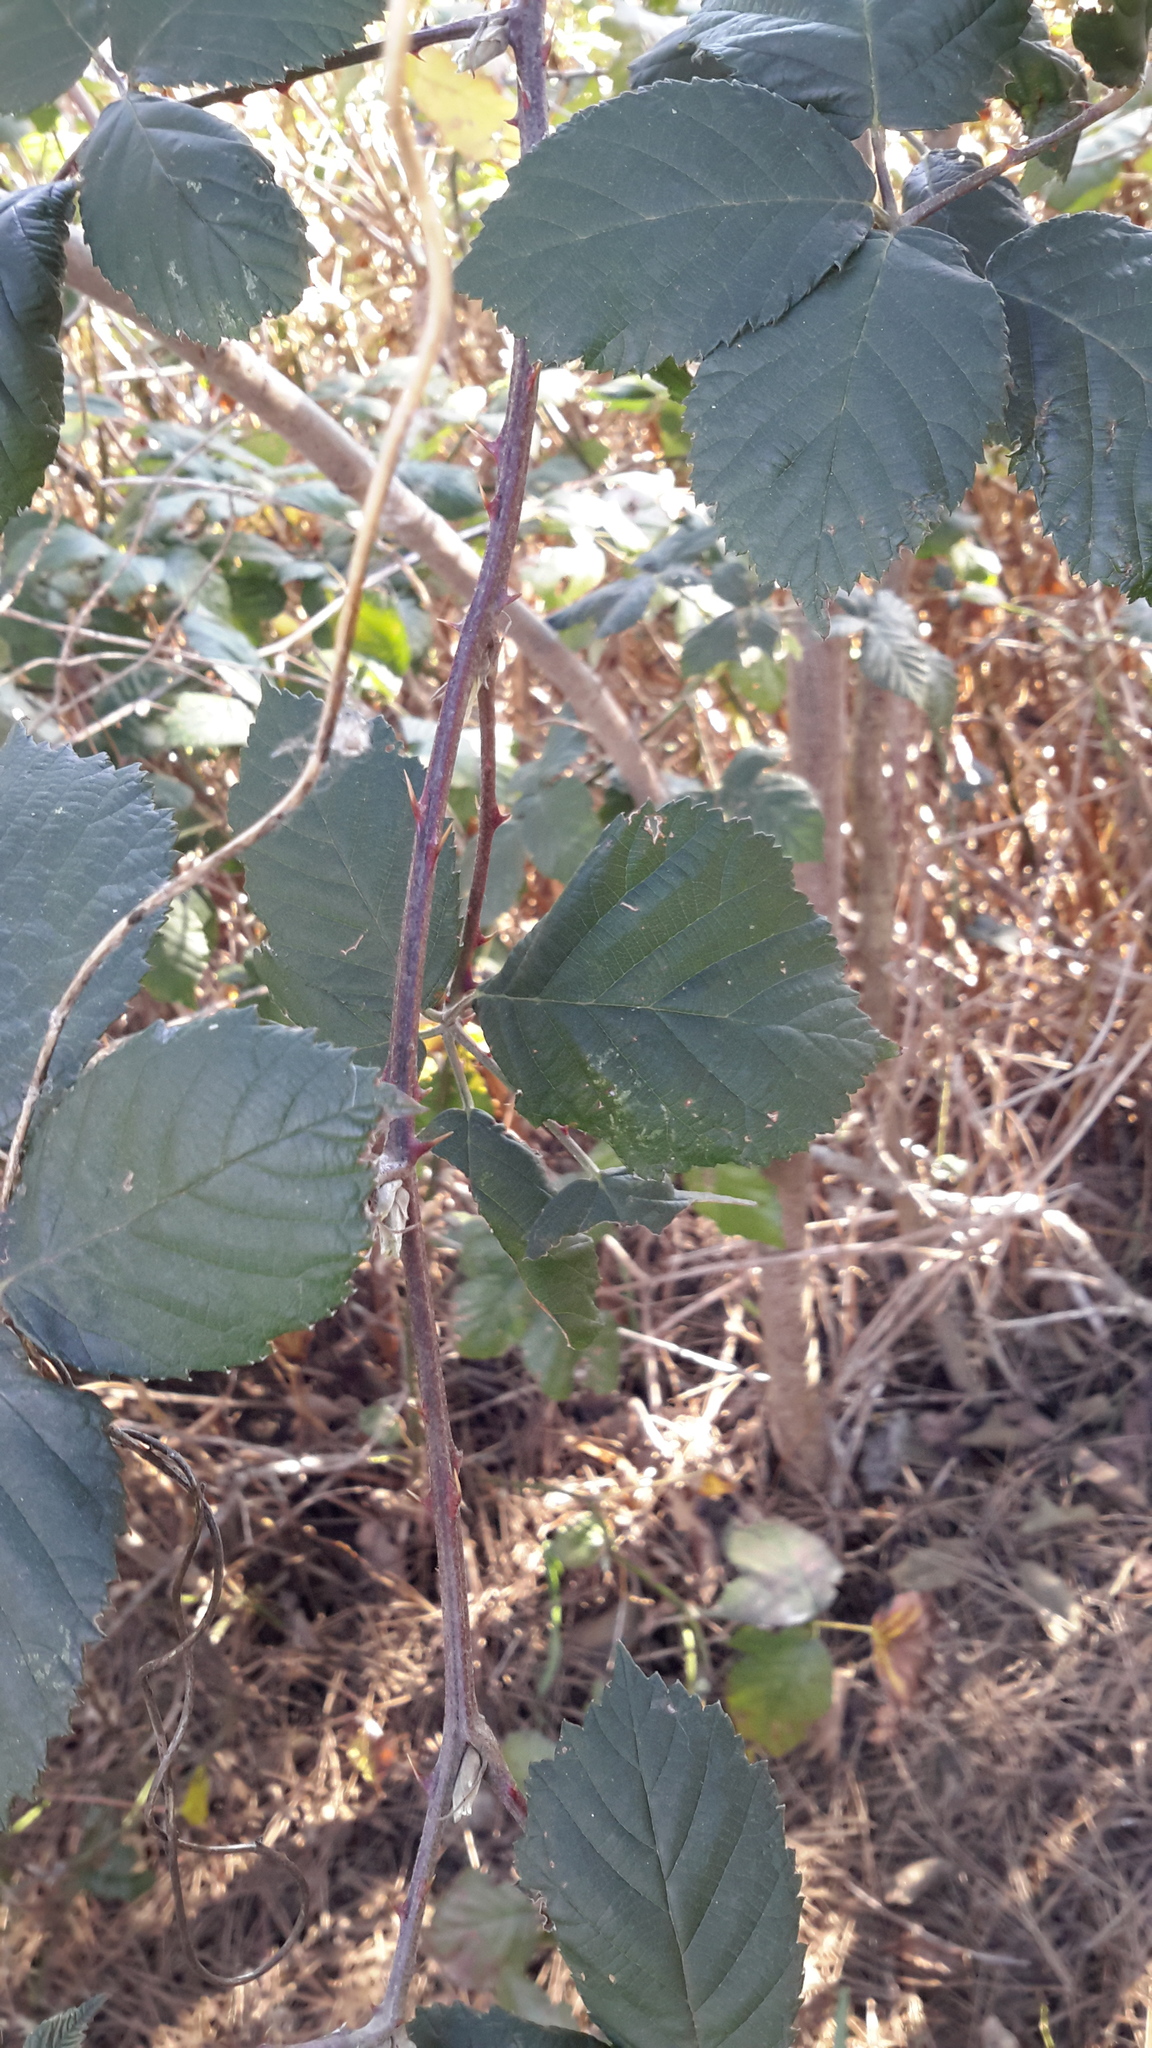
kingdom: Plantae
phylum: Tracheophyta
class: Magnoliopsida
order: Rosales
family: Rosaceae
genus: Rubus
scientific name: Rubus armeniacus
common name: Himalayan blackberry
